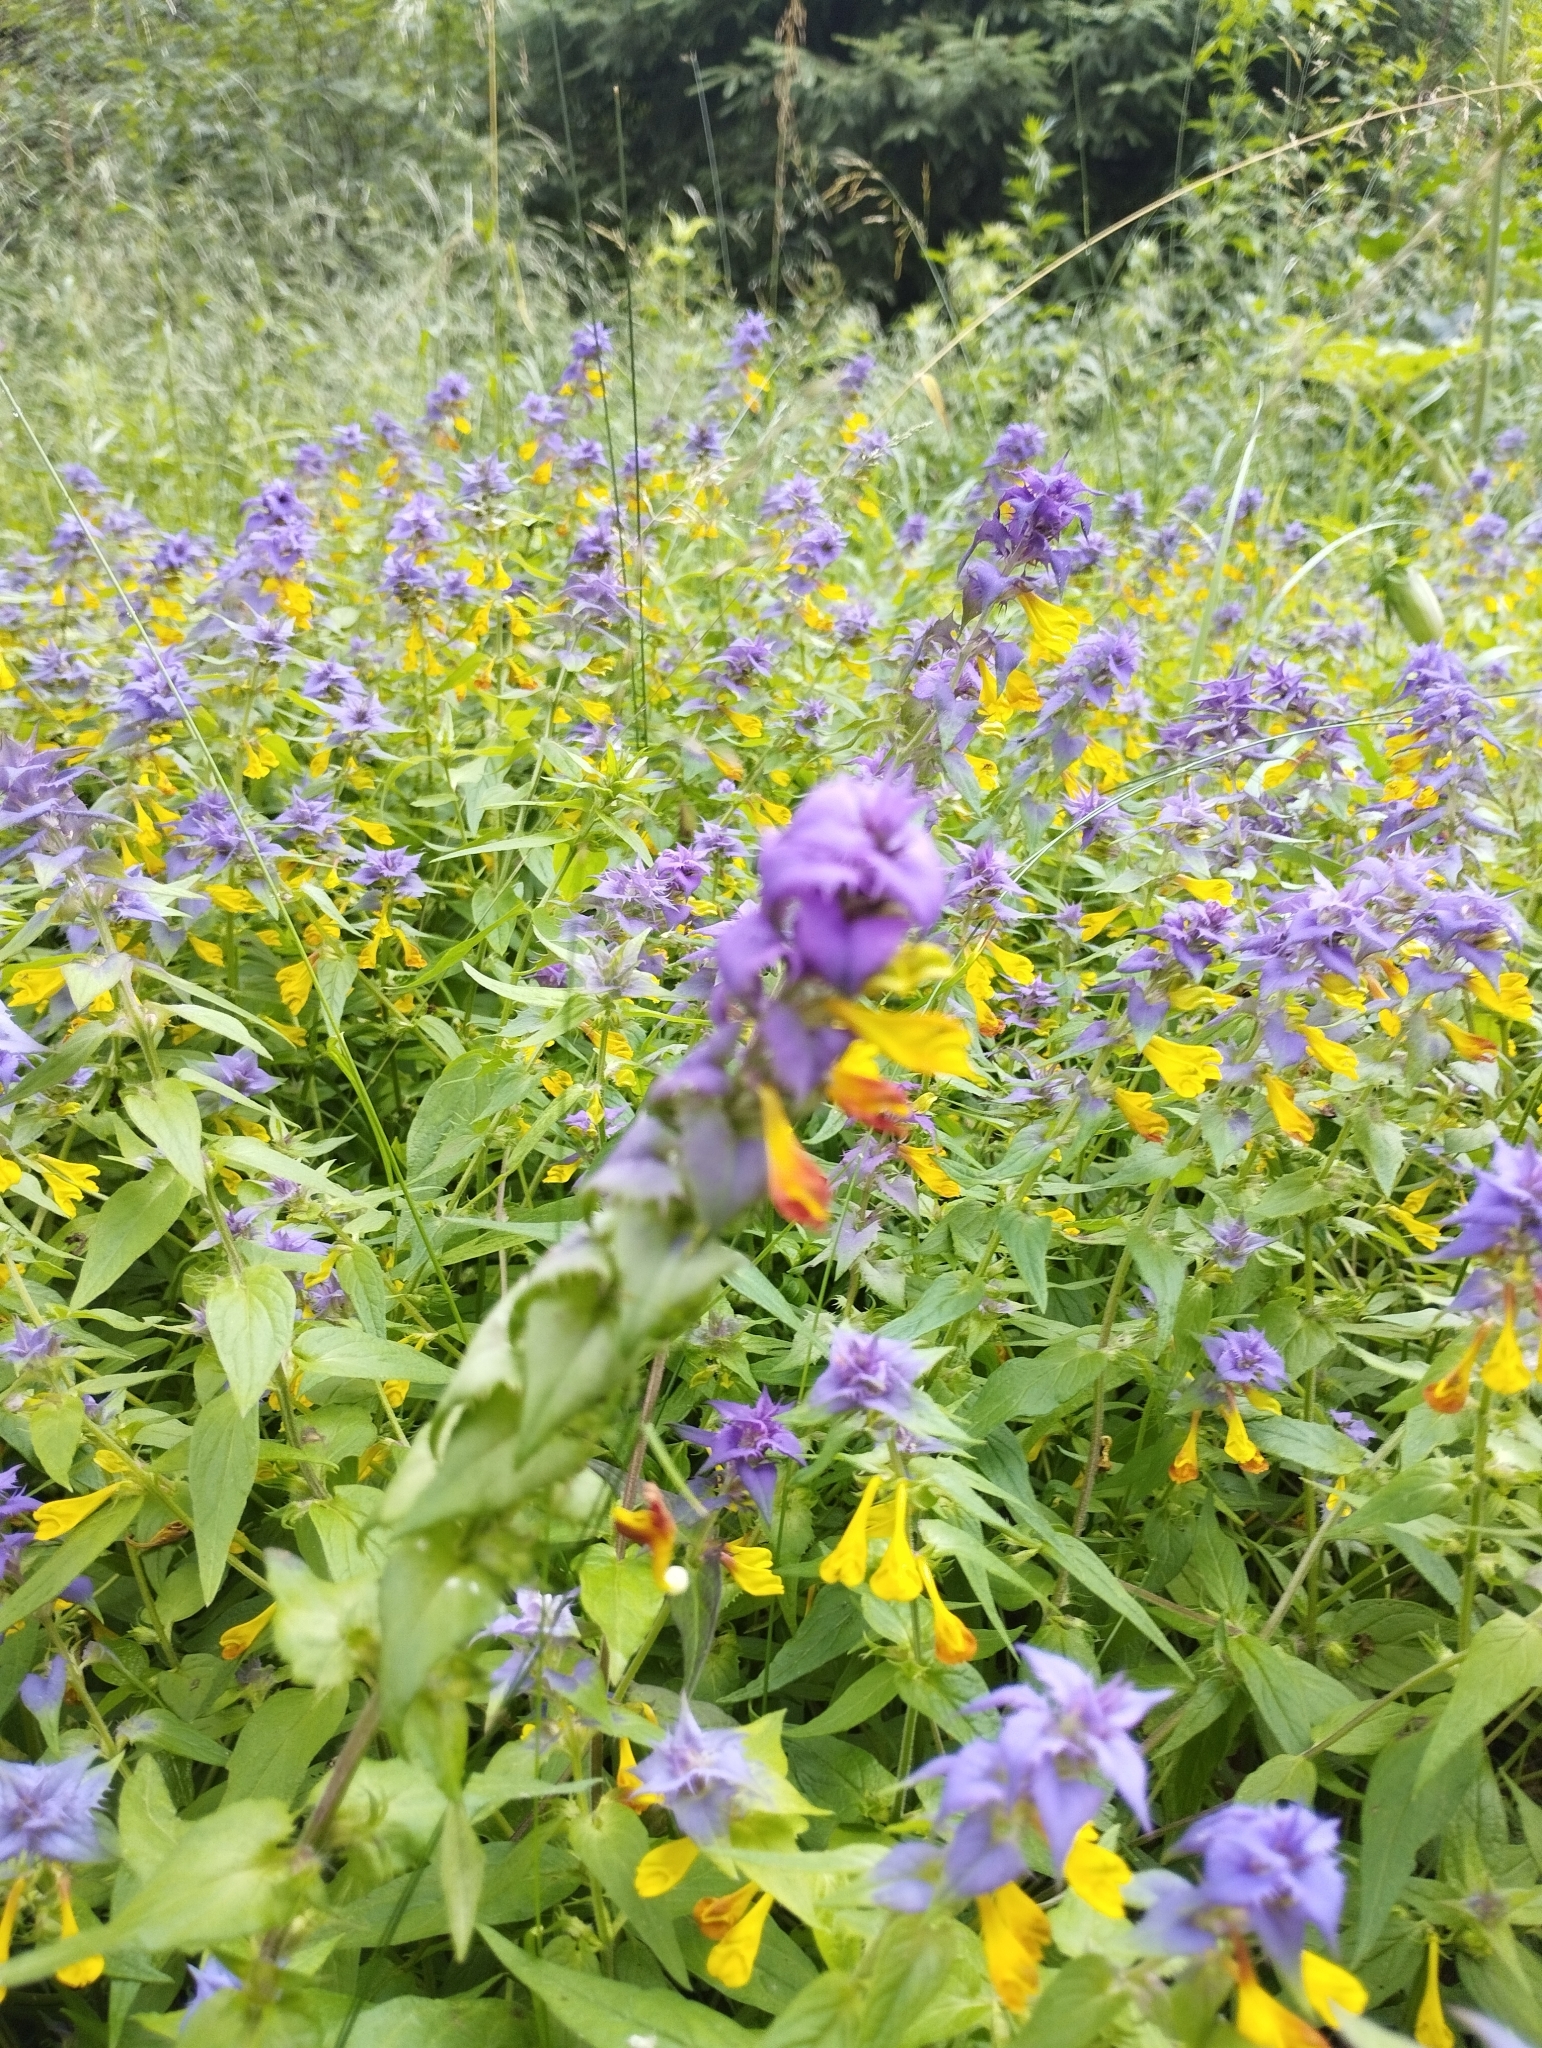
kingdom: Plantae
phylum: Tracheophyta
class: Magnoliopsida
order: Lamiales
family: Orobanchaceae
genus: Melampyrum
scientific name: Melampyrum nemorosum
